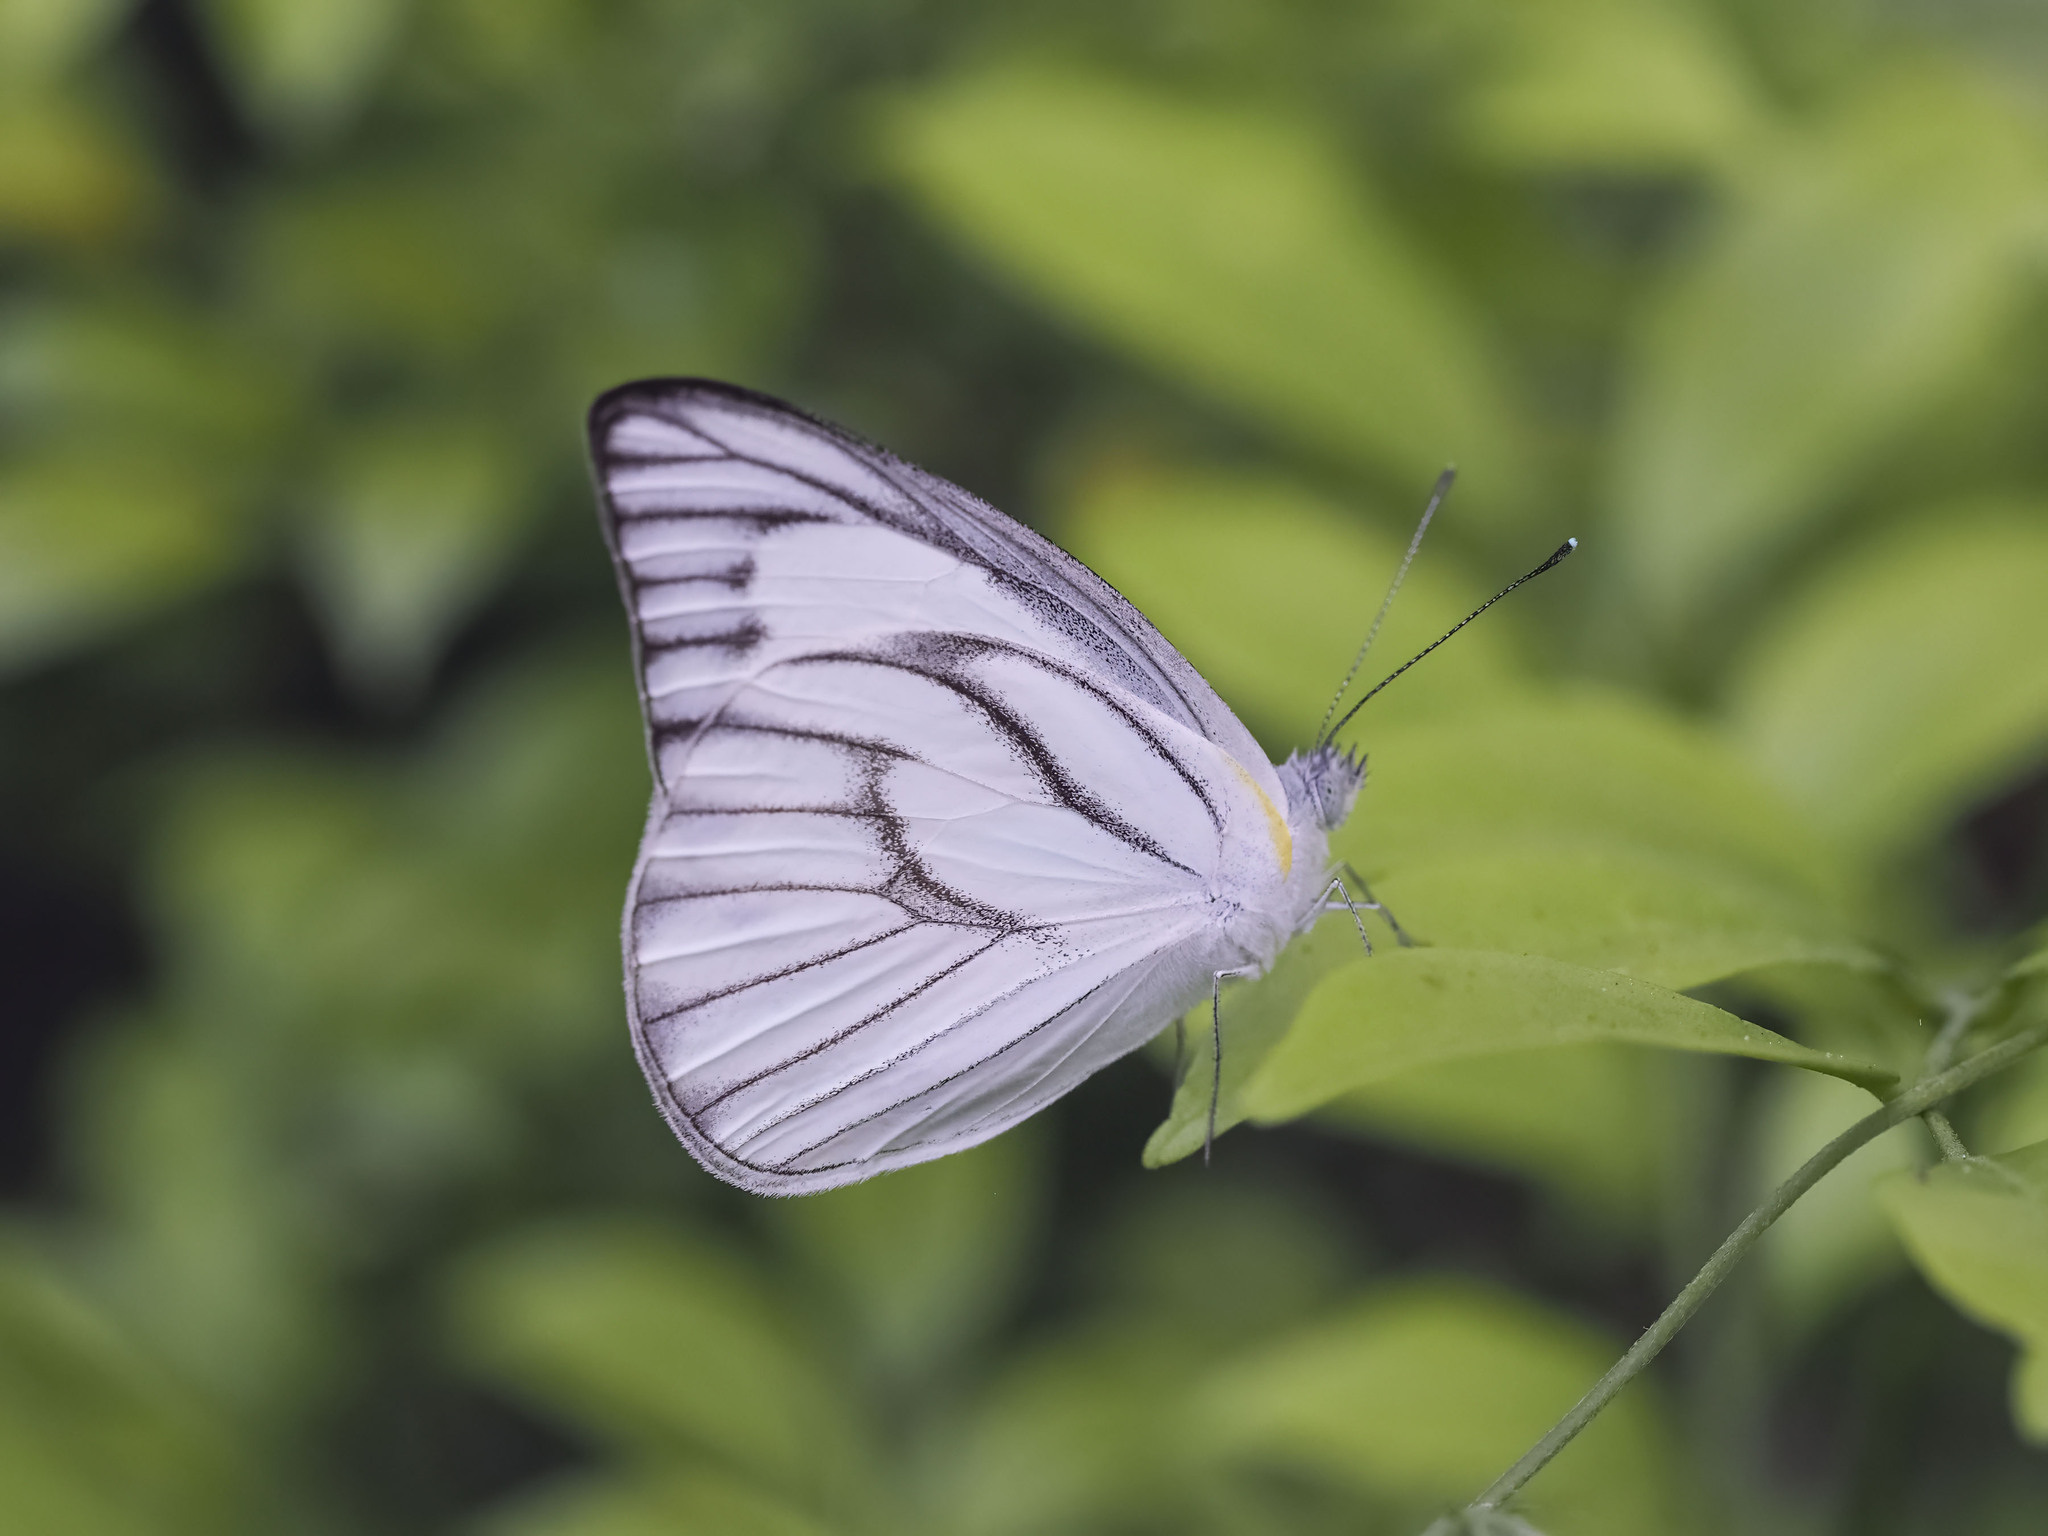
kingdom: Animalia
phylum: Arthropoda
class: Insecta
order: Lepidoptera
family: Pieridae
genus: Appias
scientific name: Appias libythea
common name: Striped albatross
